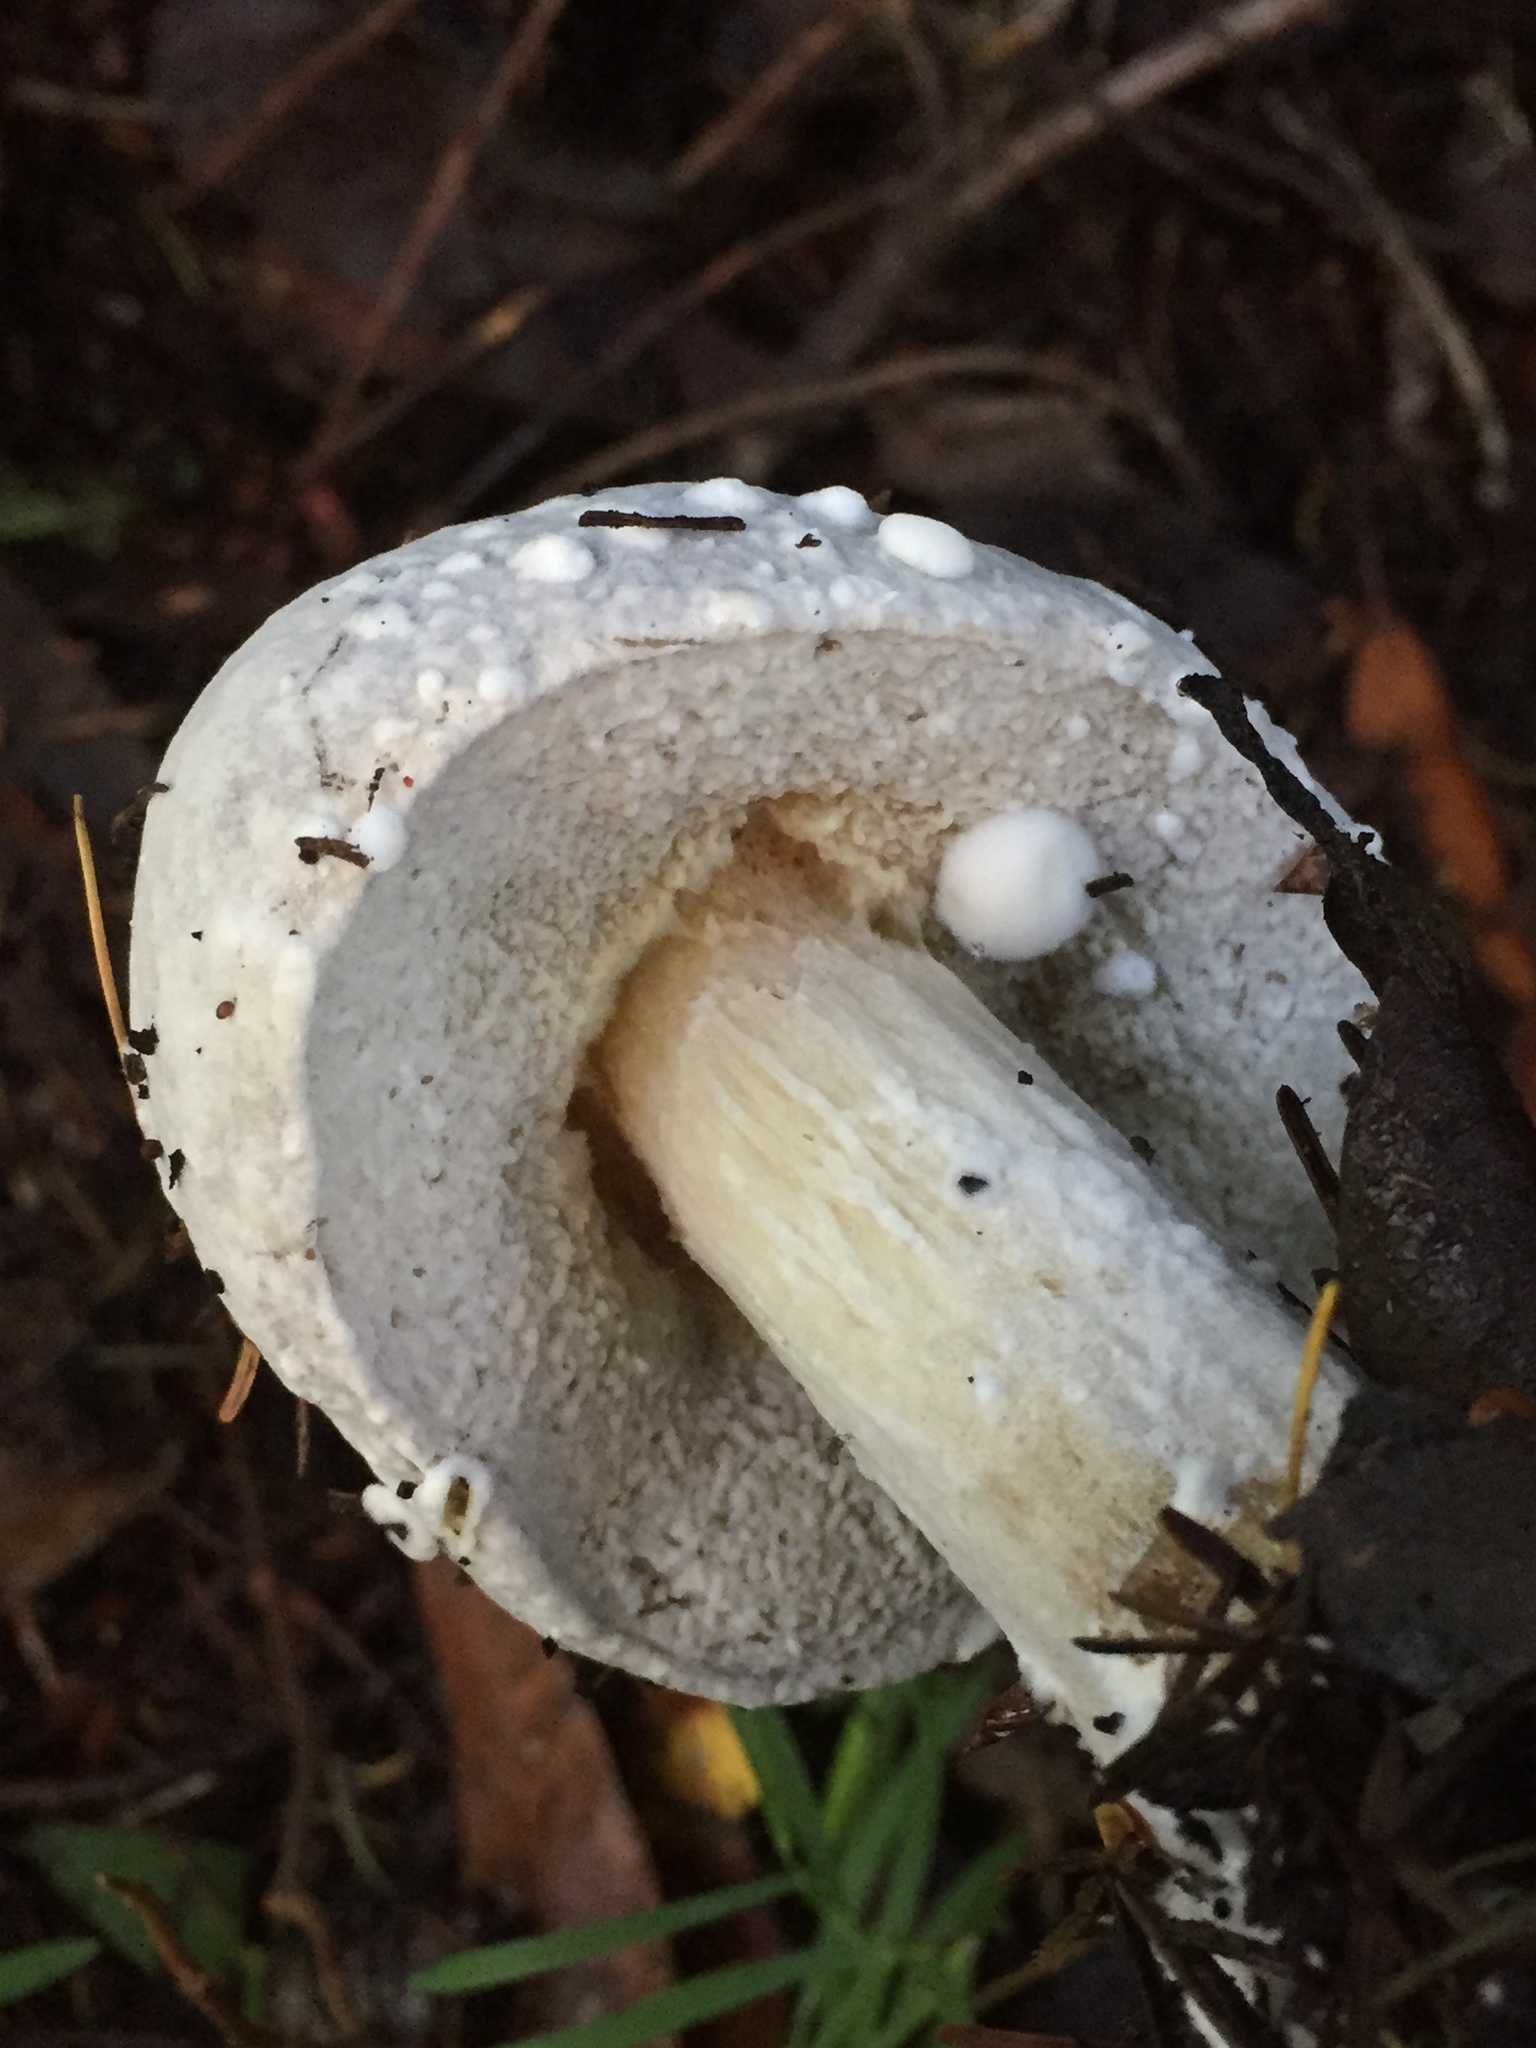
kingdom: Fungi
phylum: Ascomycota
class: Sordariomycetes
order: Hypocreales
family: Hypocreaceae
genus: Hypomyces
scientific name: Hypomyces chrysospermus
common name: Bolete mould
